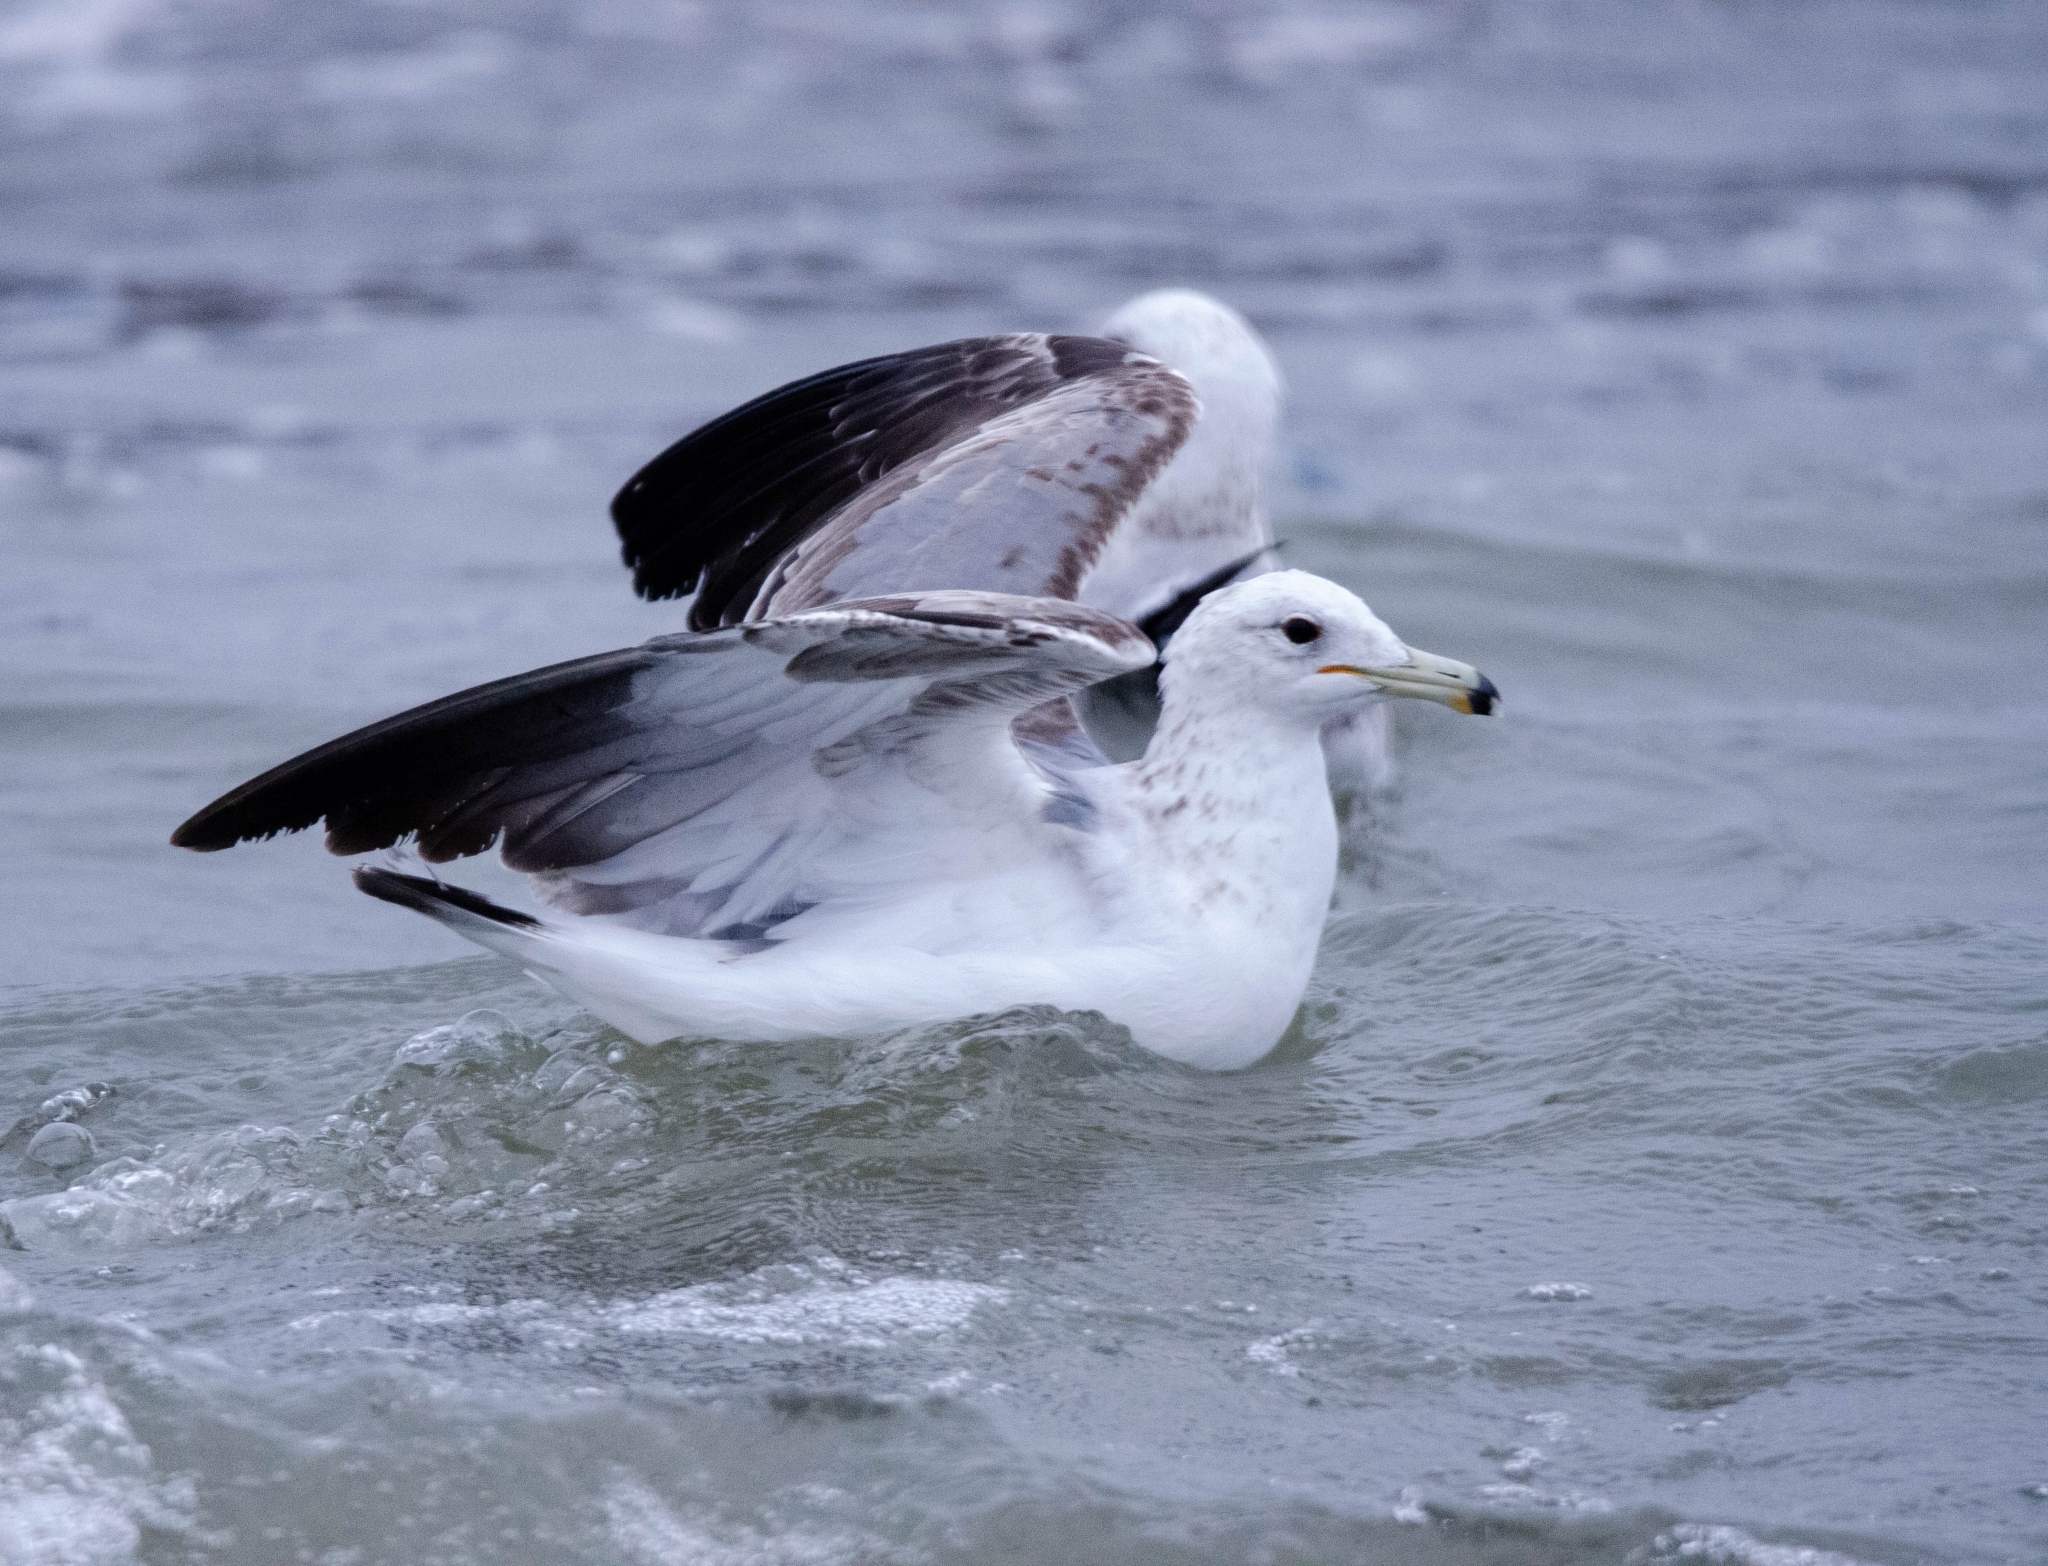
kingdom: Animalia
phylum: Chordata
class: Aves
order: Charadriiformes
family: Laridae
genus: Larus
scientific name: Larus californicus
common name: California gull
